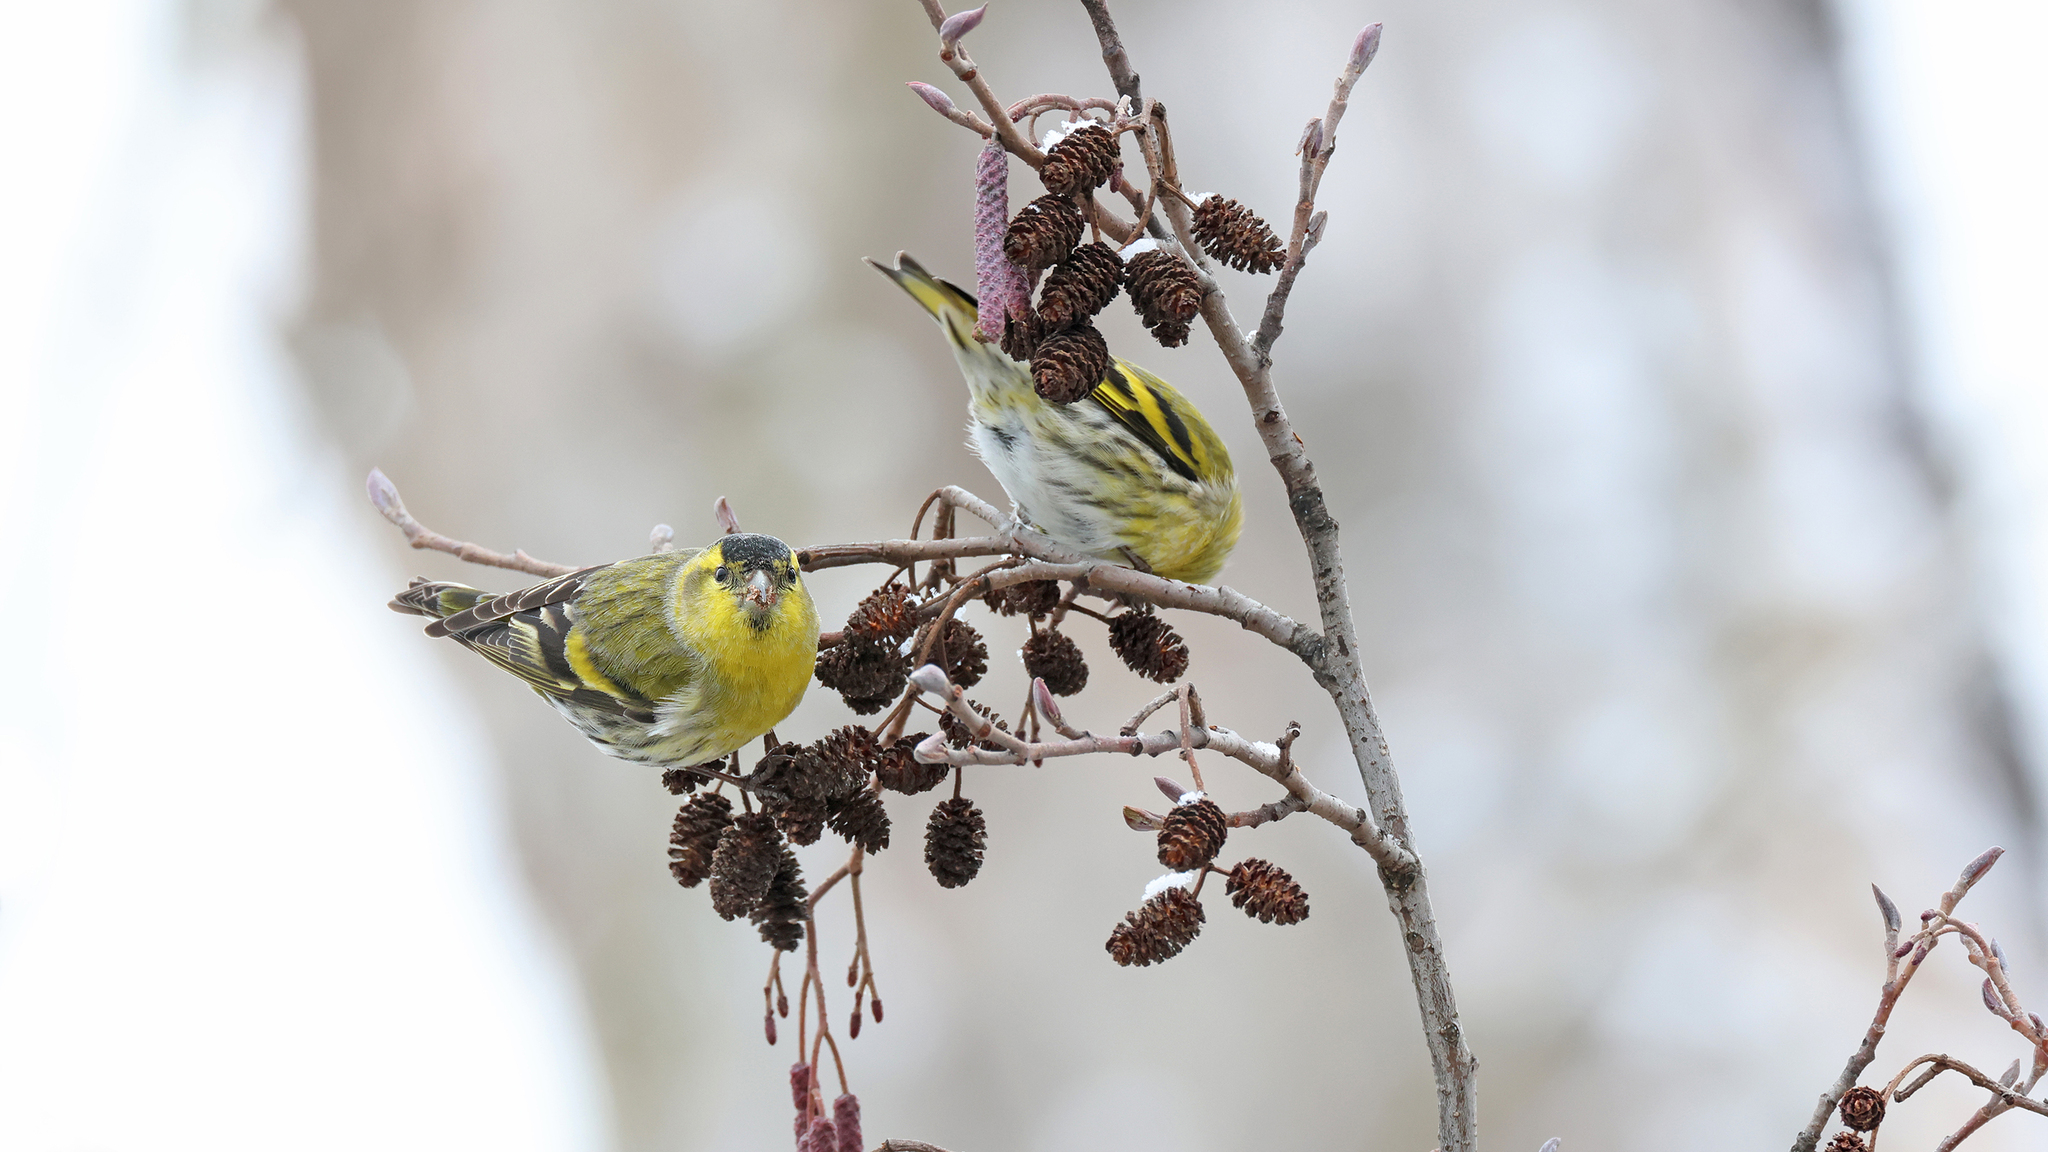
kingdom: Animalia
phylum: Chordata
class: Aves
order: Passeriformes
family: Fringillidae
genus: Spinus
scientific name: Spinus spinus
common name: Eurasian siskin
